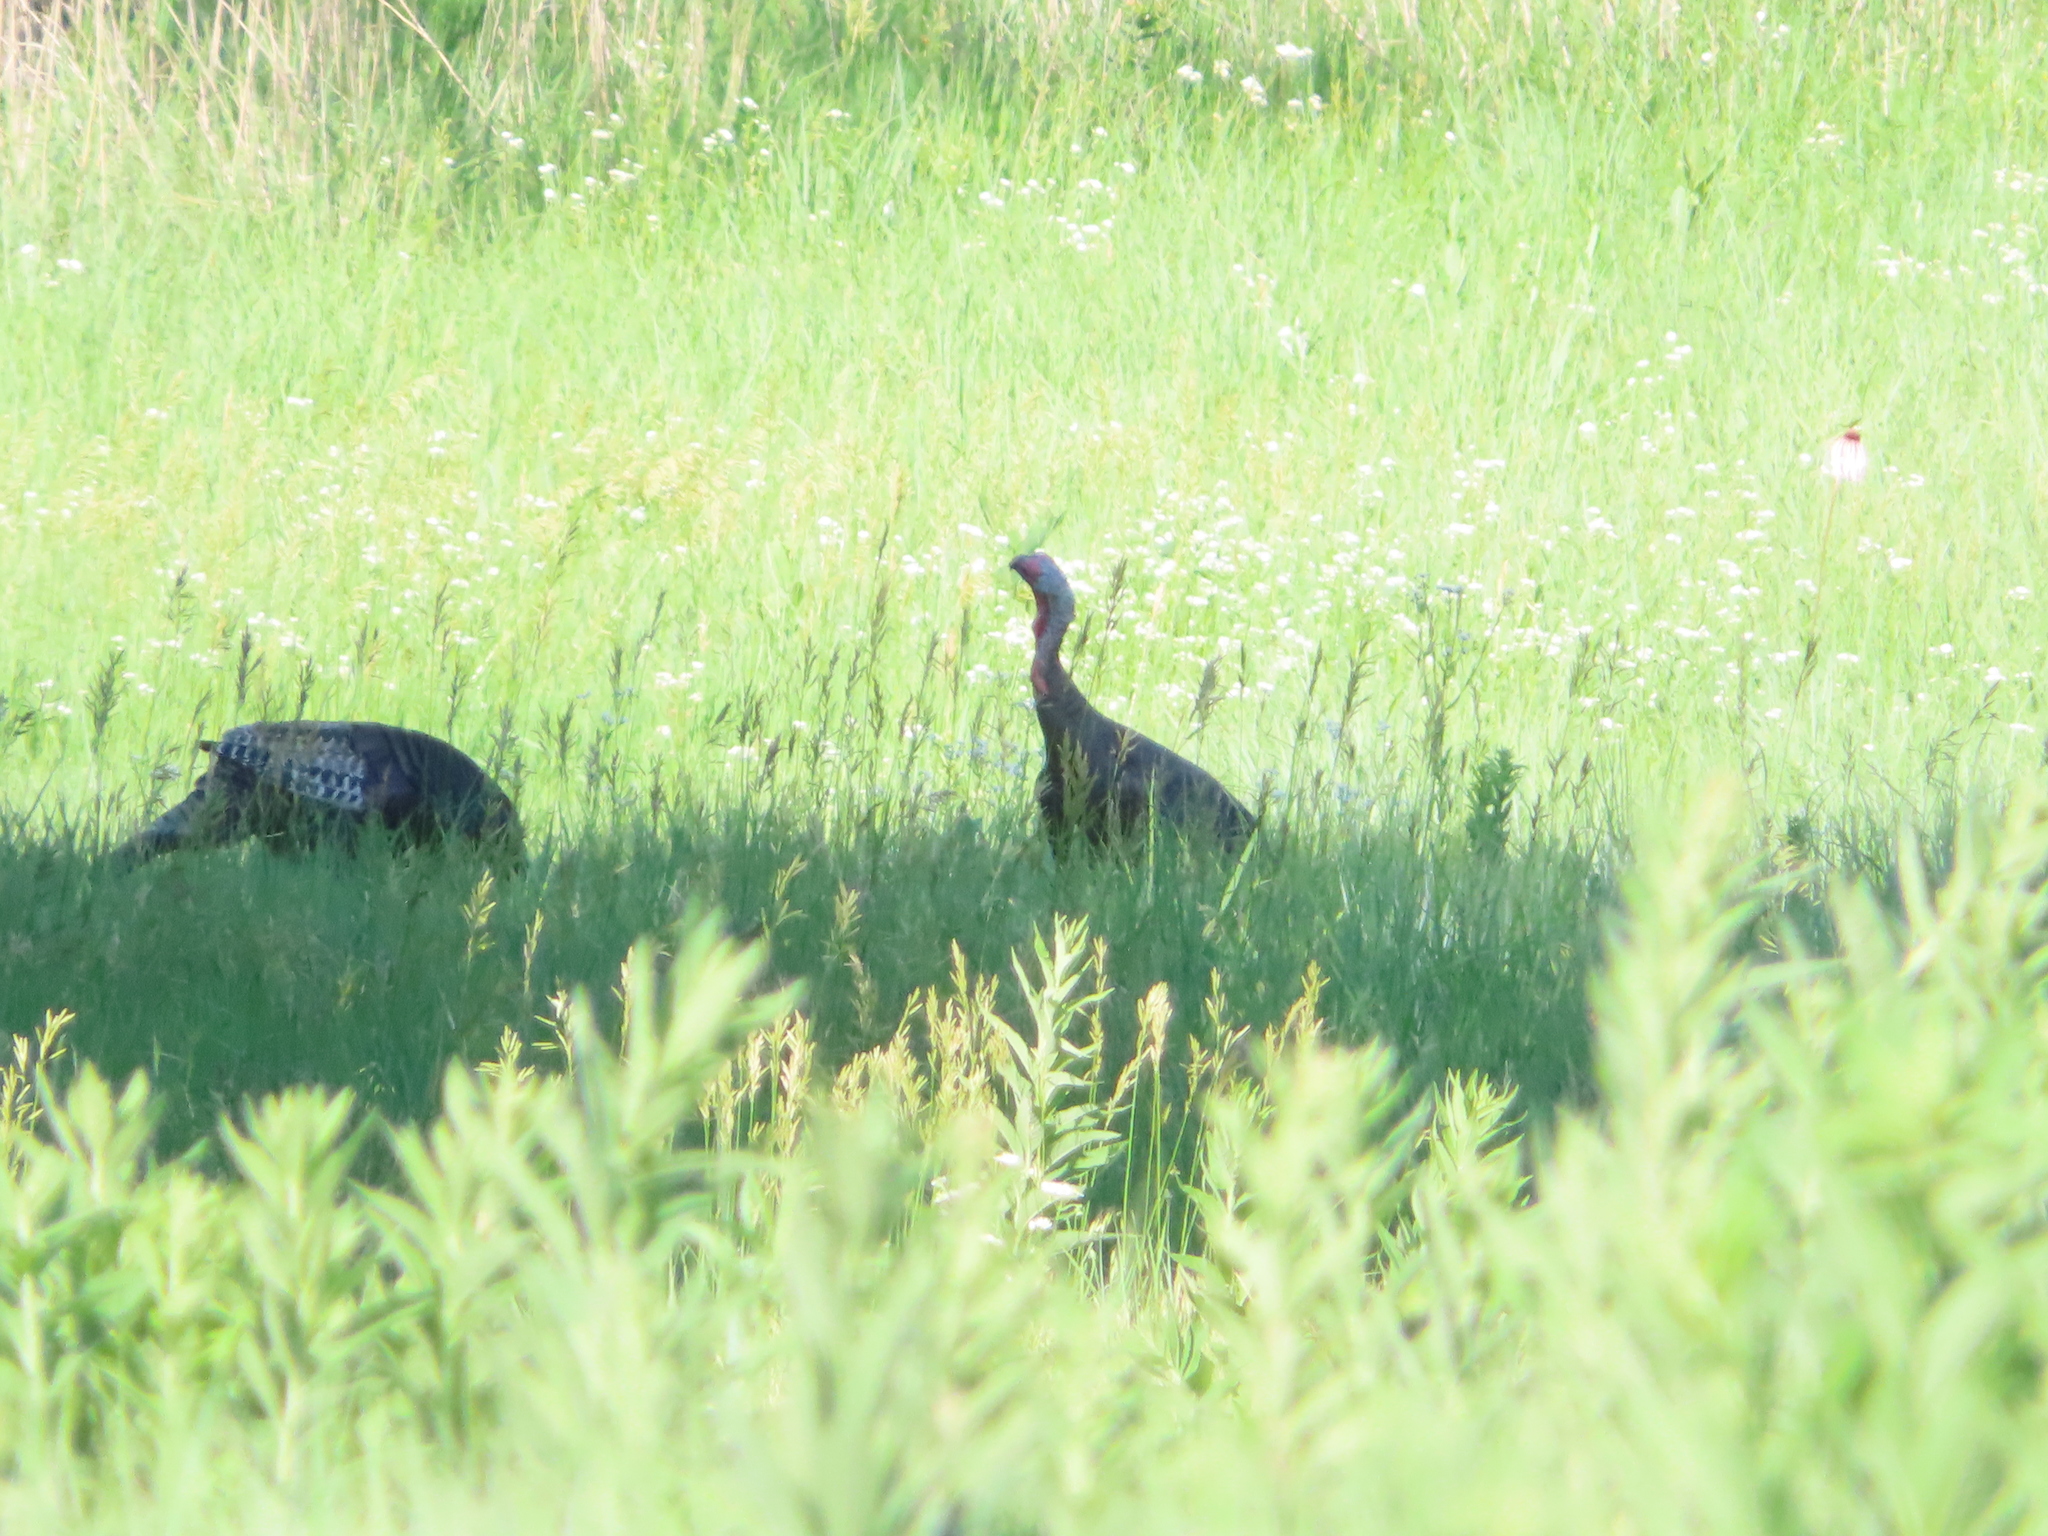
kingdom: Animalia
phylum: Chordata
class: Aves
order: Galliformes
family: Phasianidae
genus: Meleagris
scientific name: Meleagris gallopavo
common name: Wild turkey
